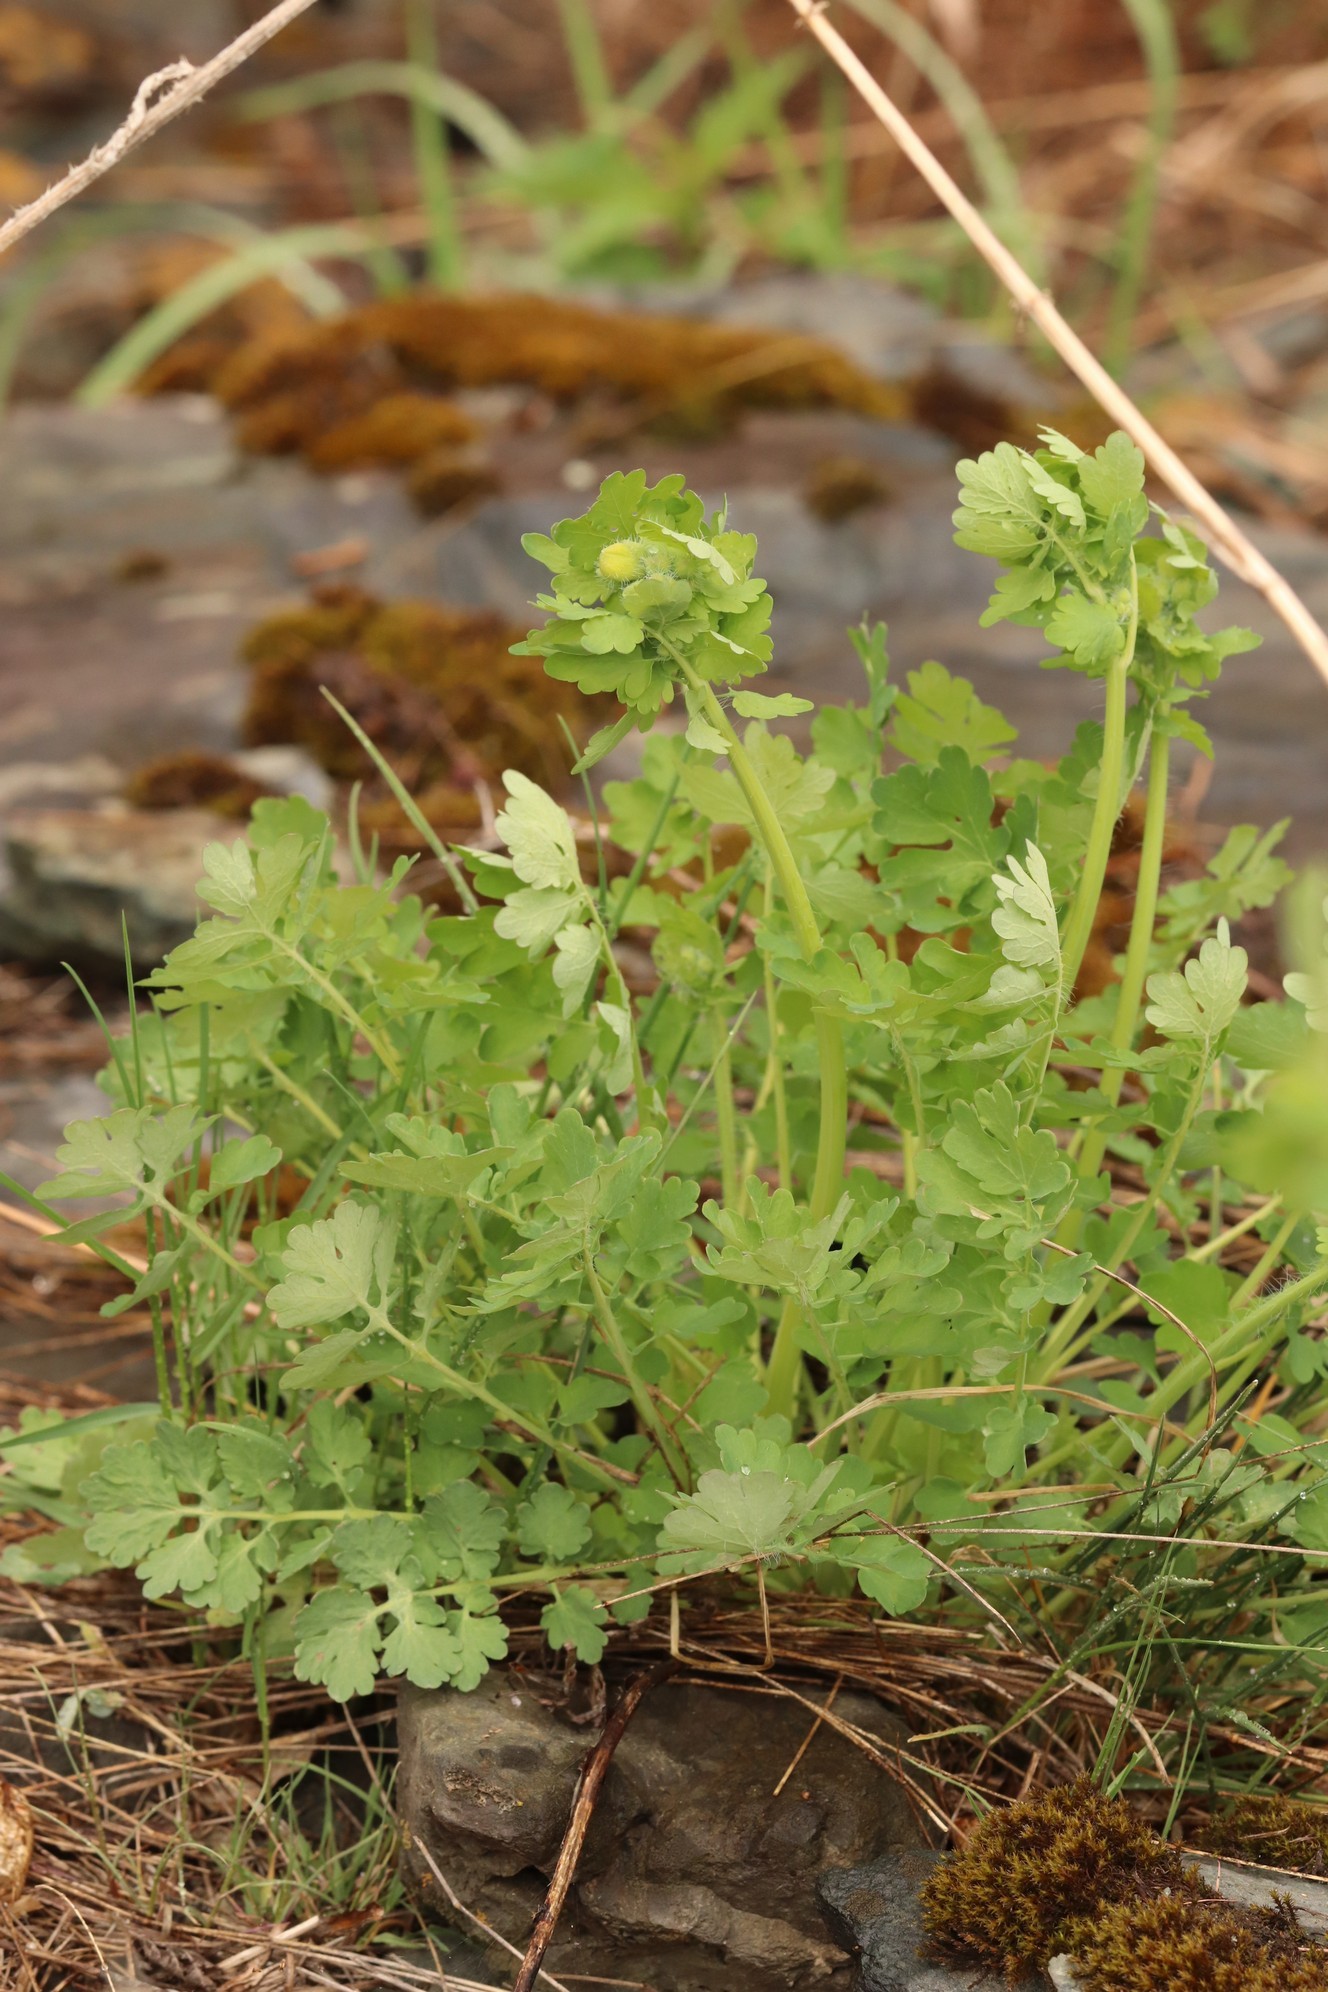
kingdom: Plantae
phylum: Tracheophyta
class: Magnoliopsida
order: Ranunculales
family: Papaveraceae
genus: Chelidonium
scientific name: Chelidonium majus
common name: Greater celandine
